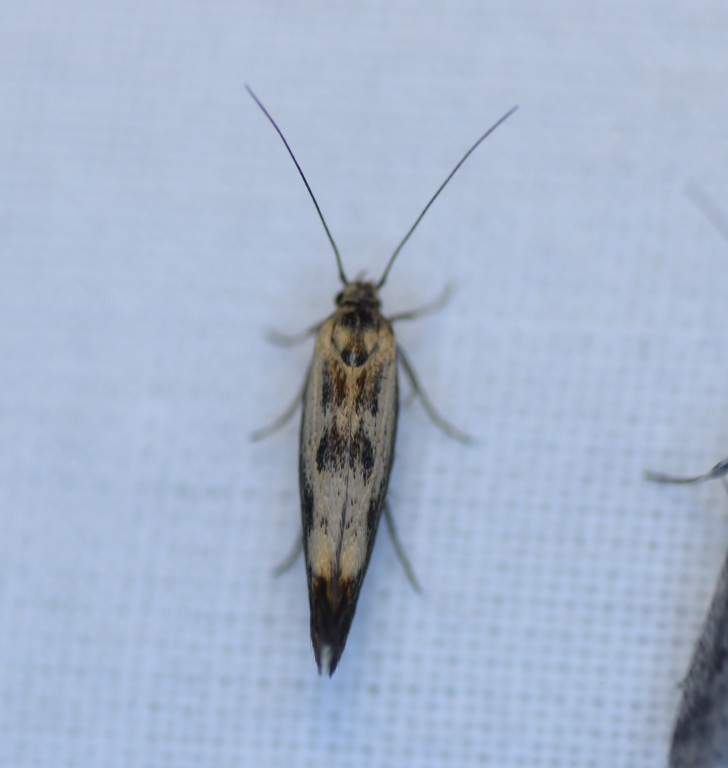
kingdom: Animalia
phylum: Arthropoda
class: Insecta
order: Lepidoptera
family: Scythrididae
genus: Scythris
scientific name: Scythris limbella
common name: Goosefoot owlet
